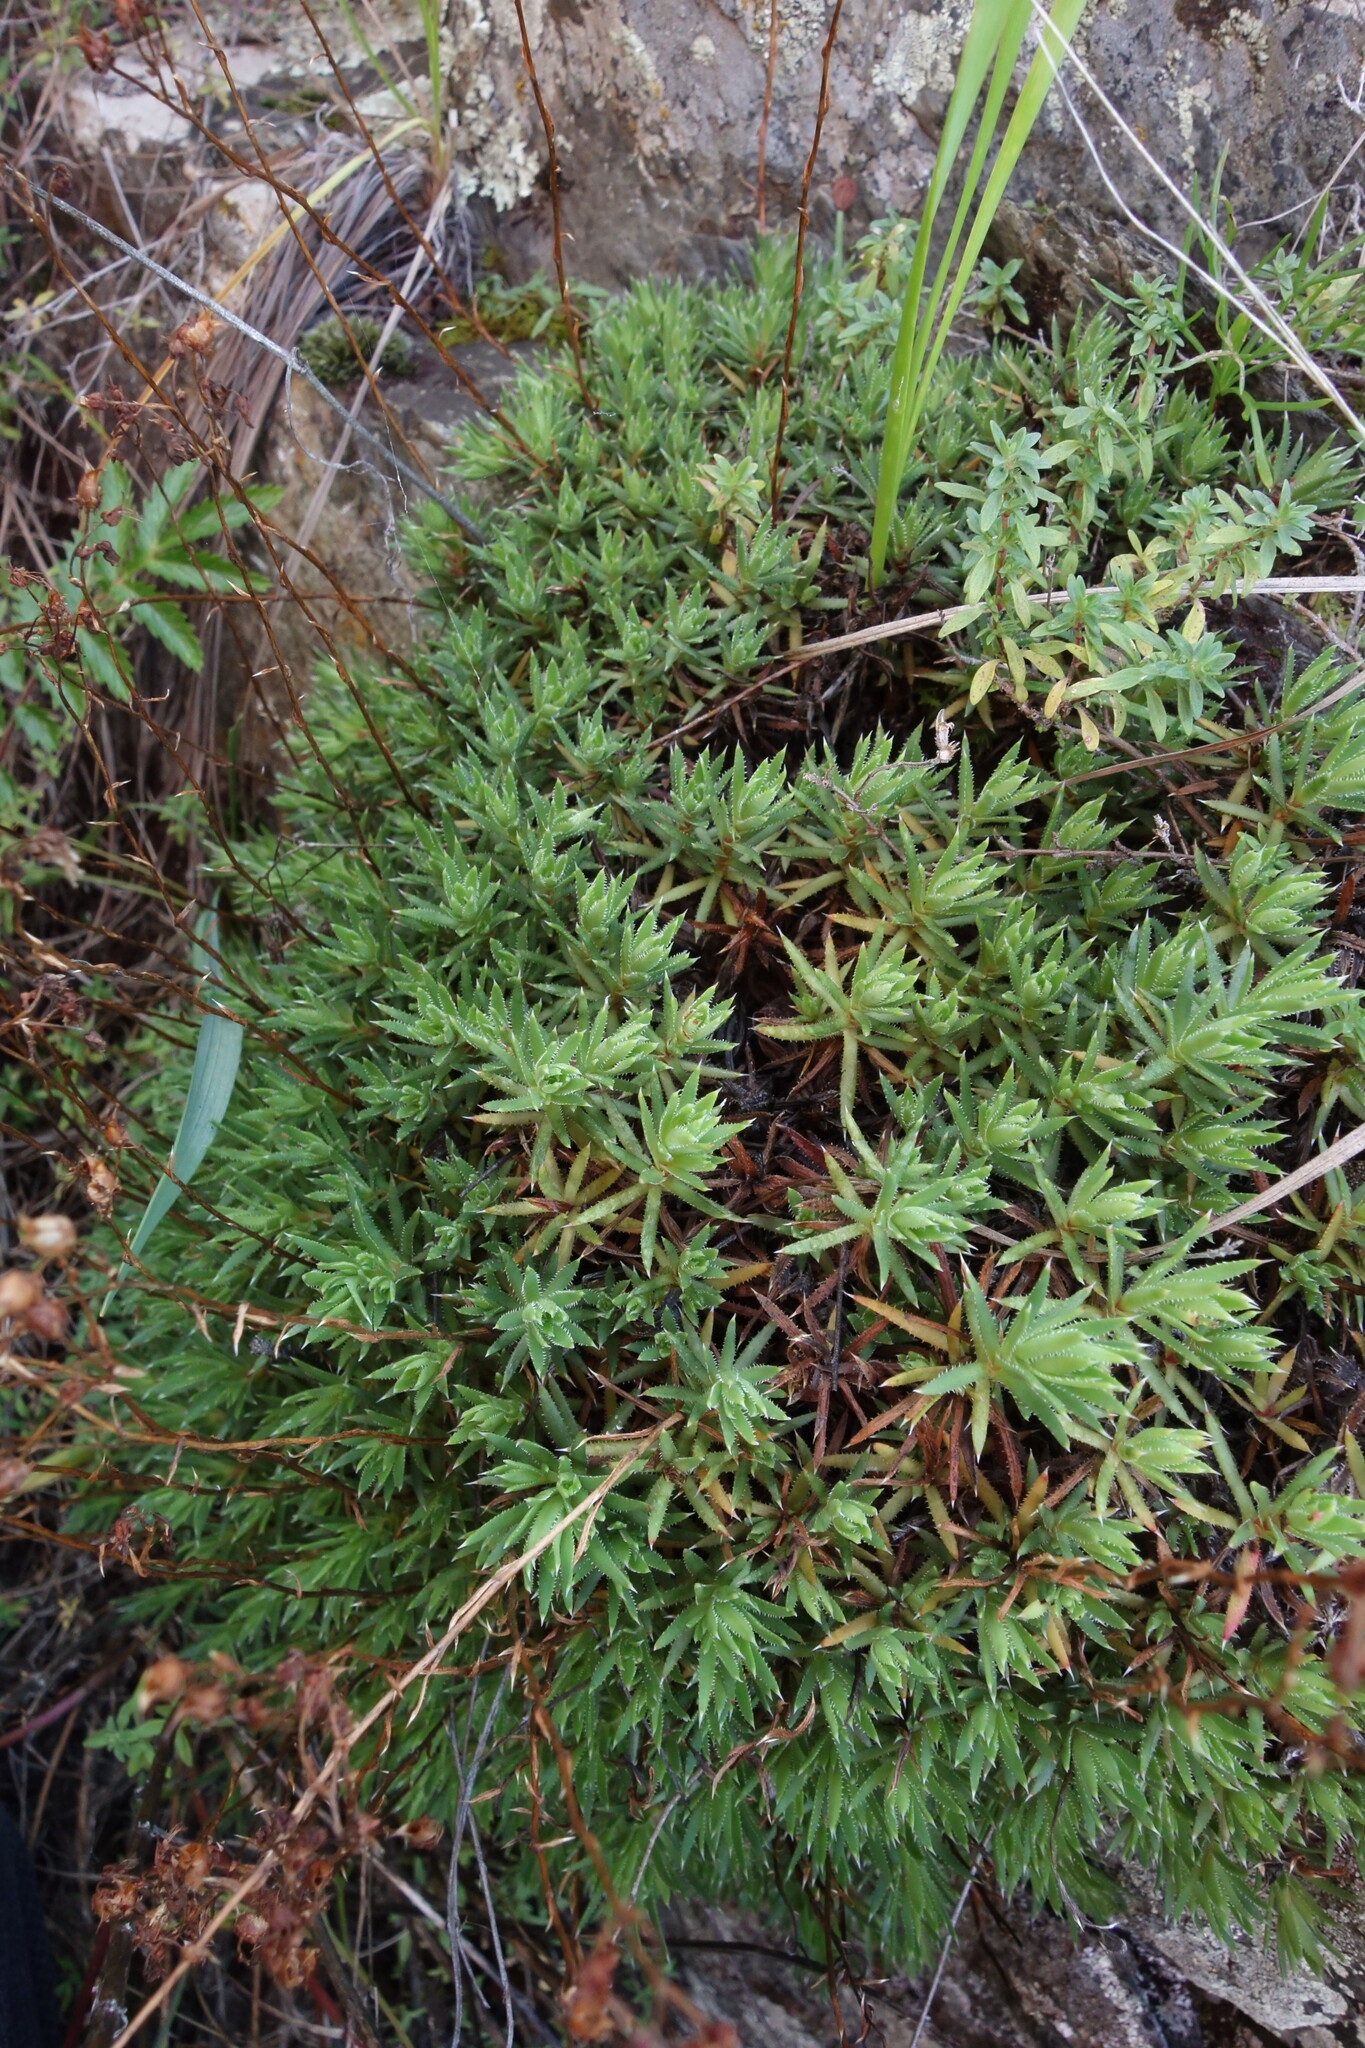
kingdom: Plantae
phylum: Tracheophyta
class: Magnoliopsida
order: Saxifragales
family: Saxifragaceae
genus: Saxifraga
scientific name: Saxifraga
